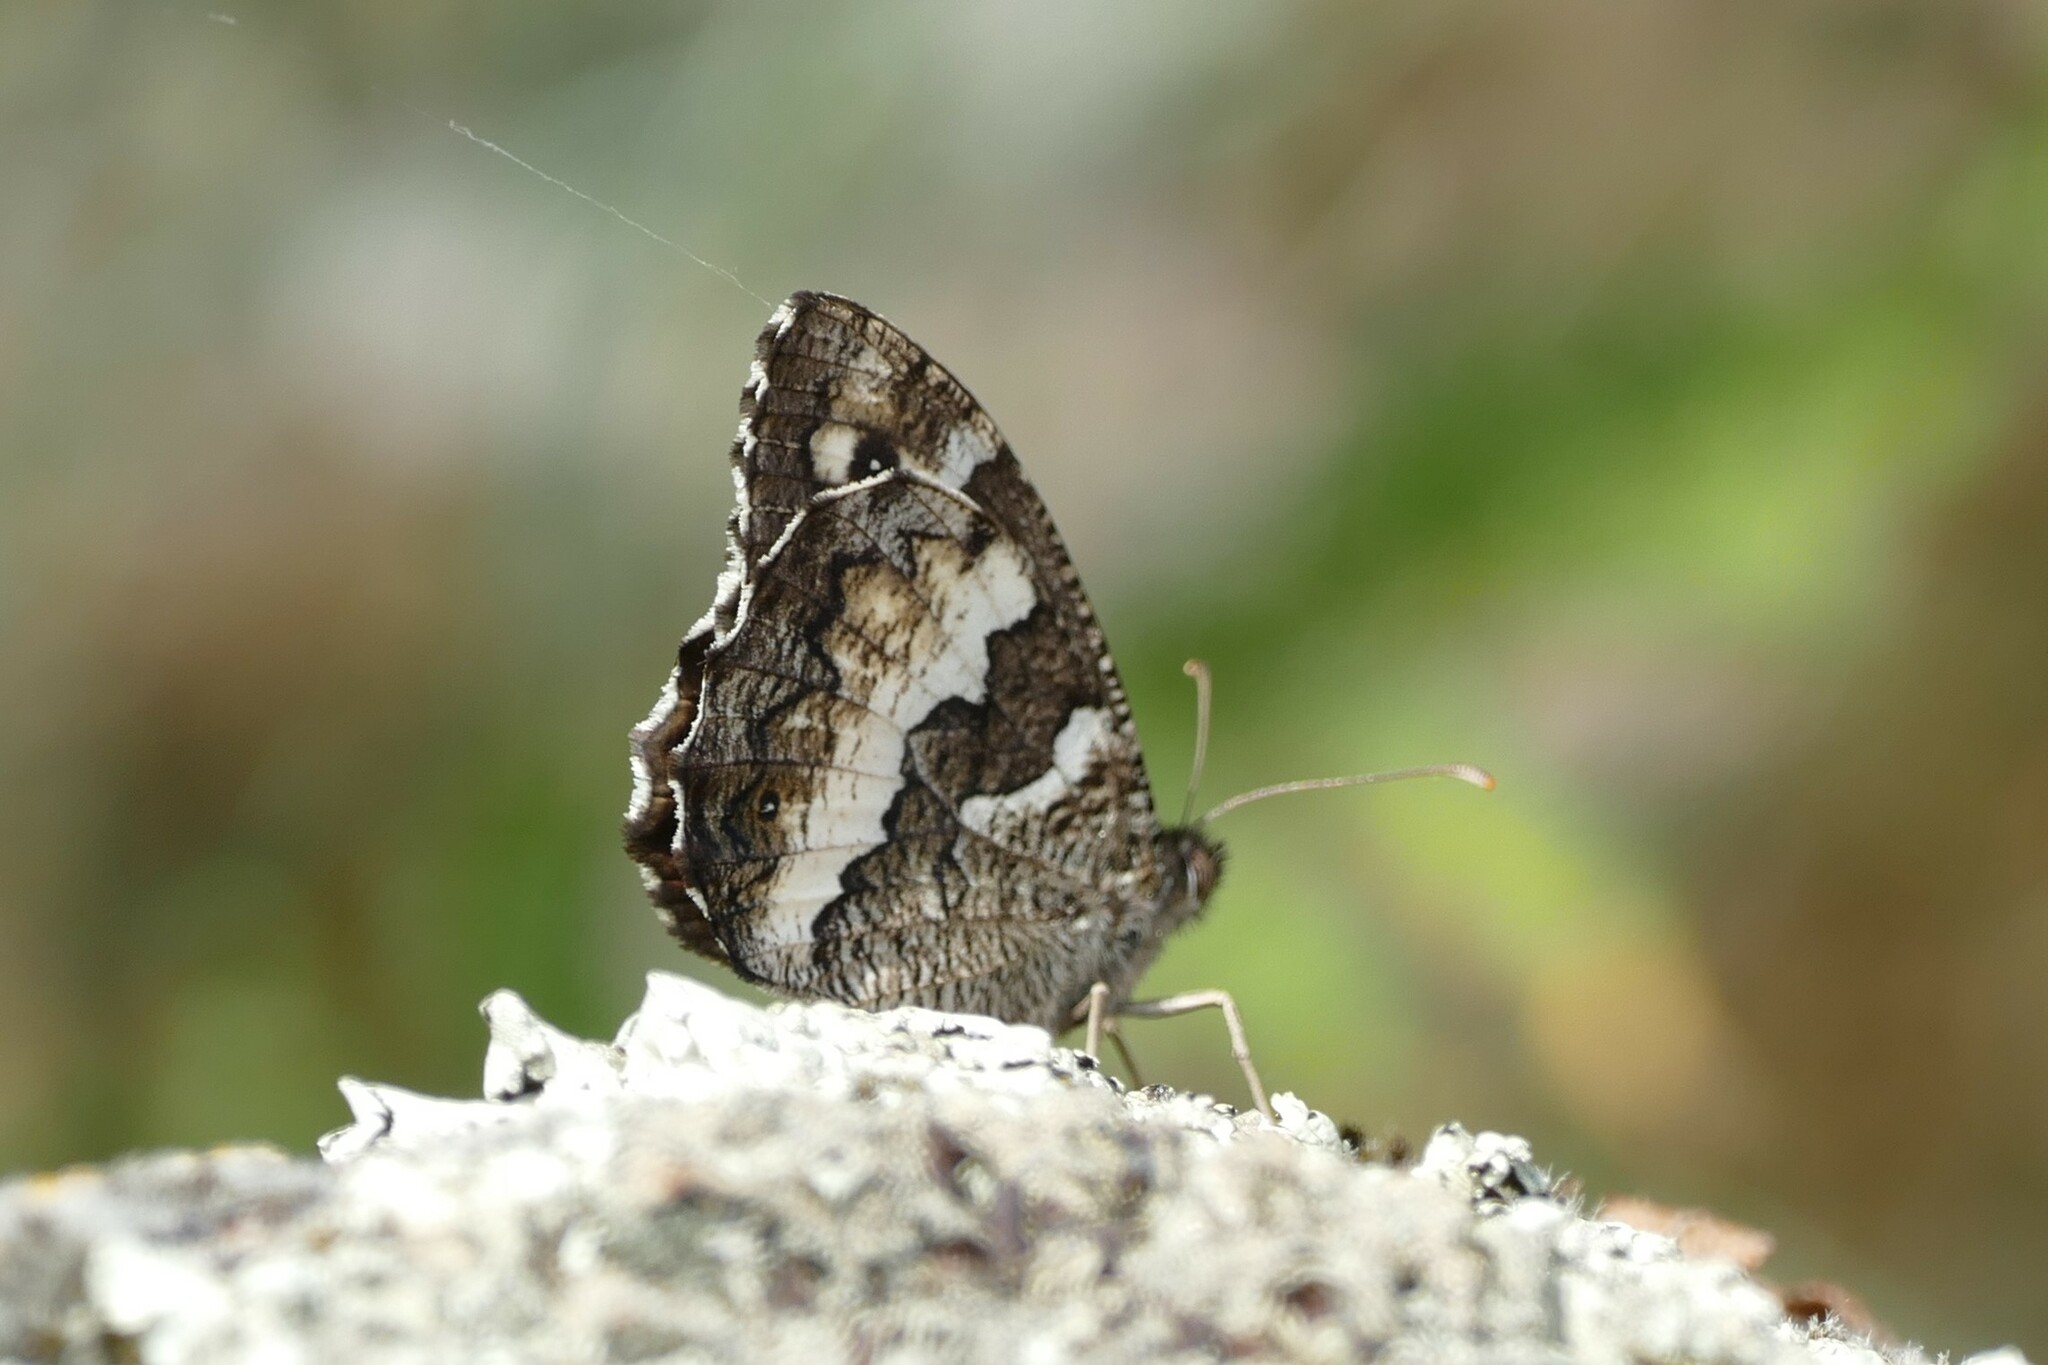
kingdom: Animalia
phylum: Arthropoda
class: Insecta
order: Lepidoptera
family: Lycaenidae
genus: Loweia
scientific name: Loweia tityrus
